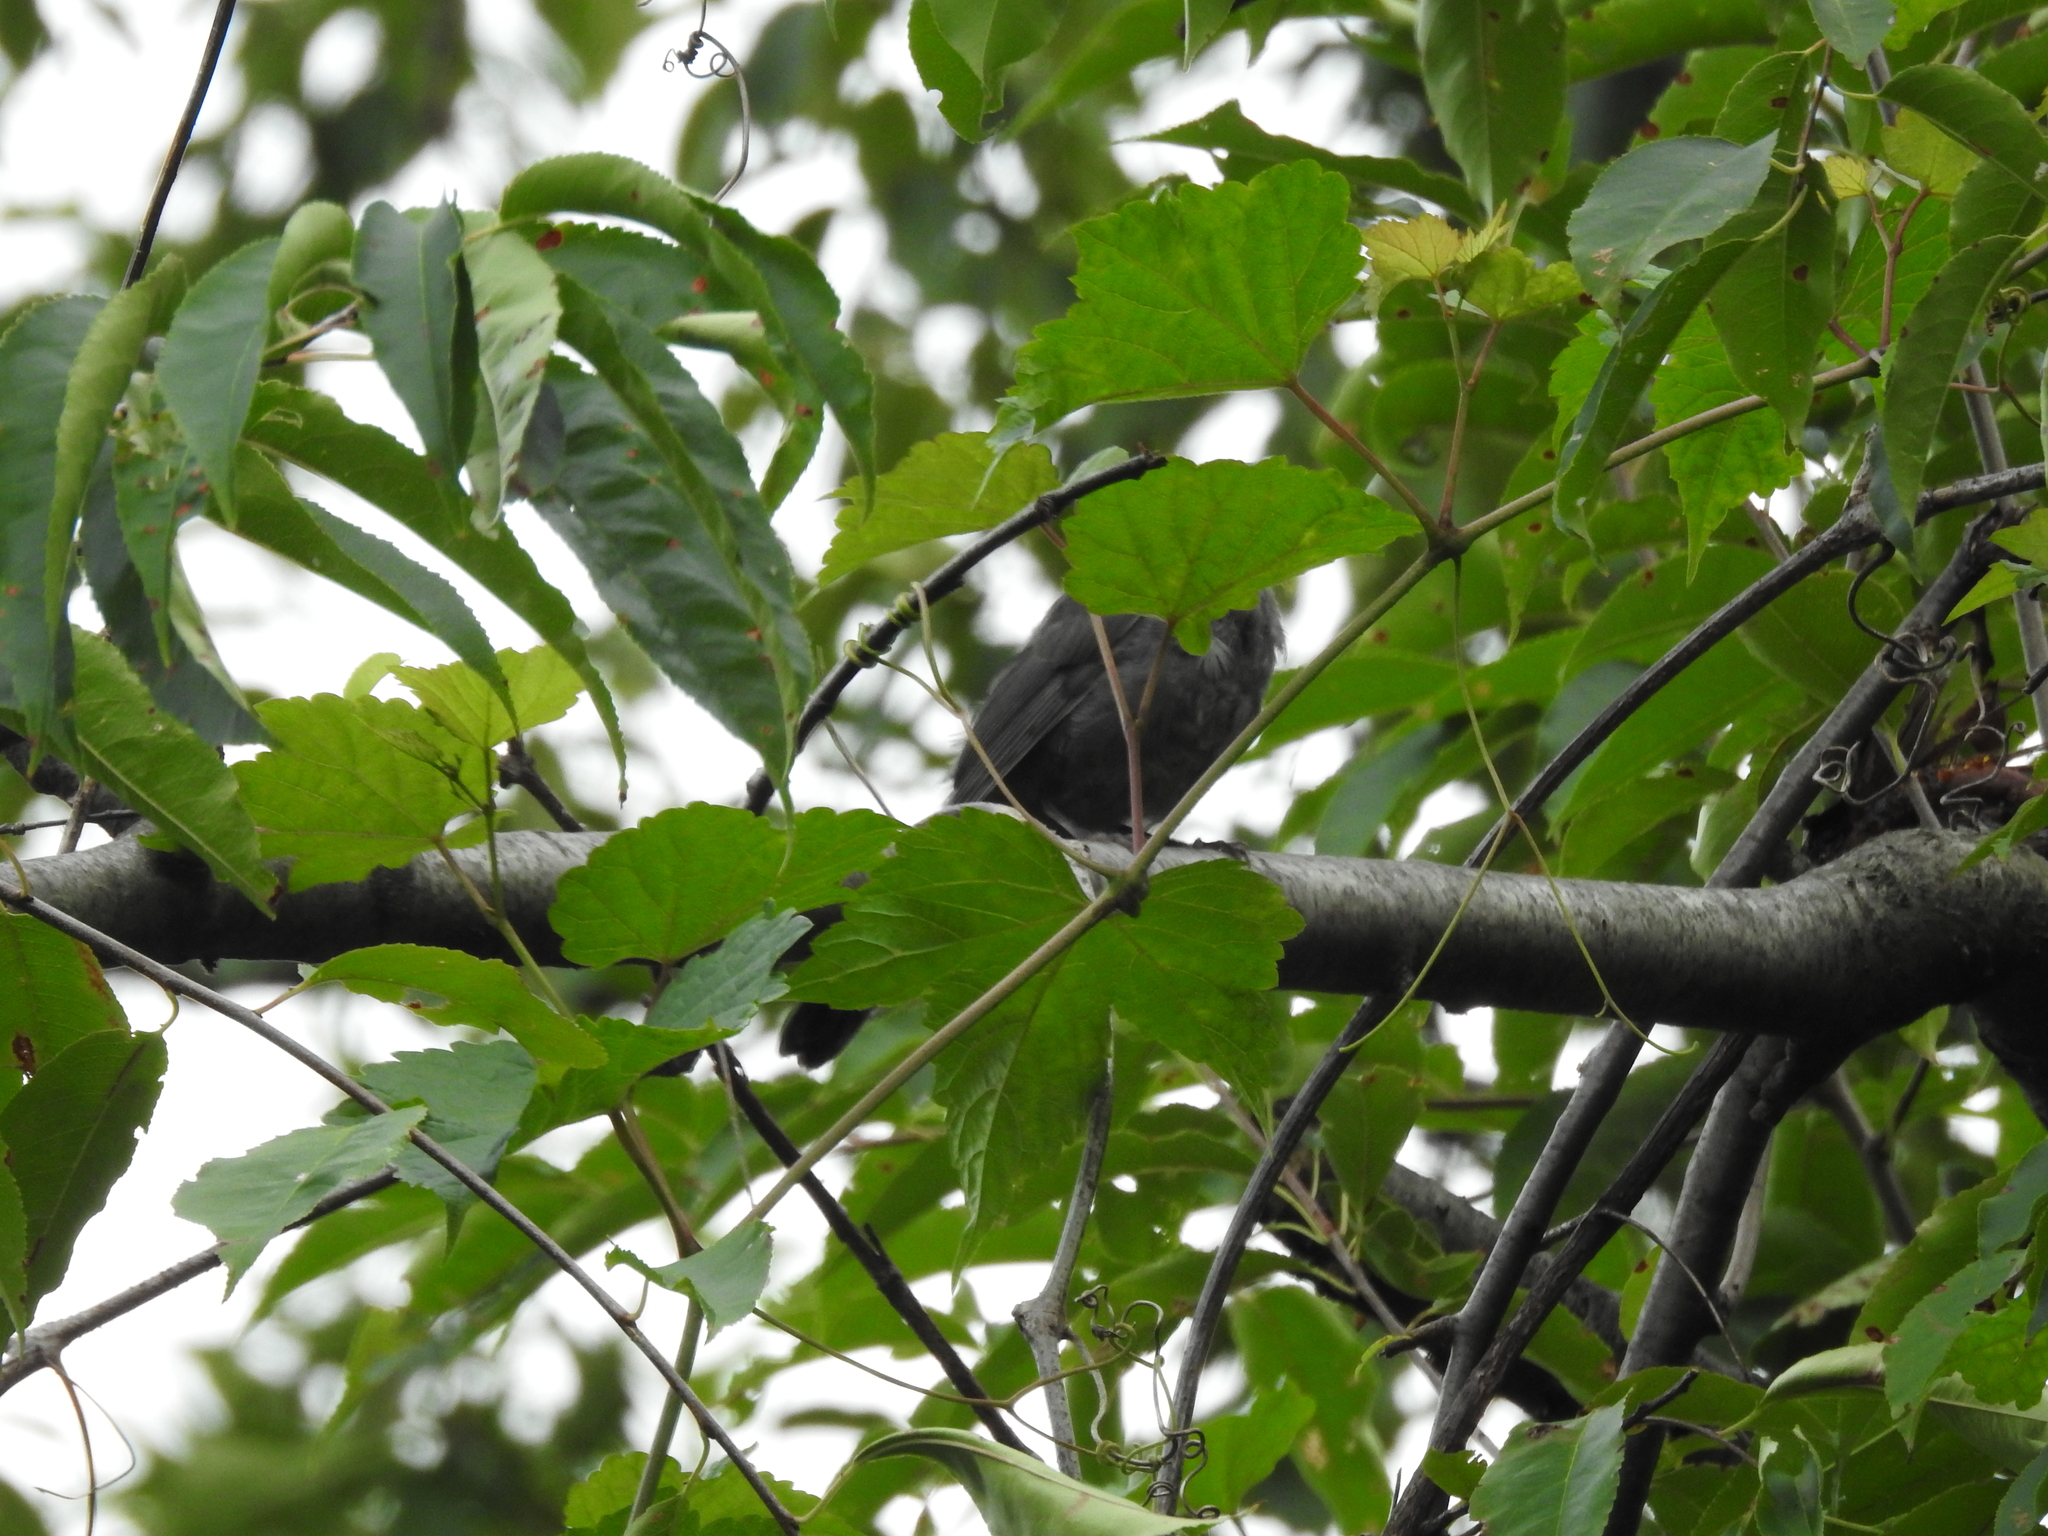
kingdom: Animalia
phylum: Chordata
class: Aves
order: Passeriformes
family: Mimidae
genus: Dumetella
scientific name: Dumetella carolinensis
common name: Gray catbird
